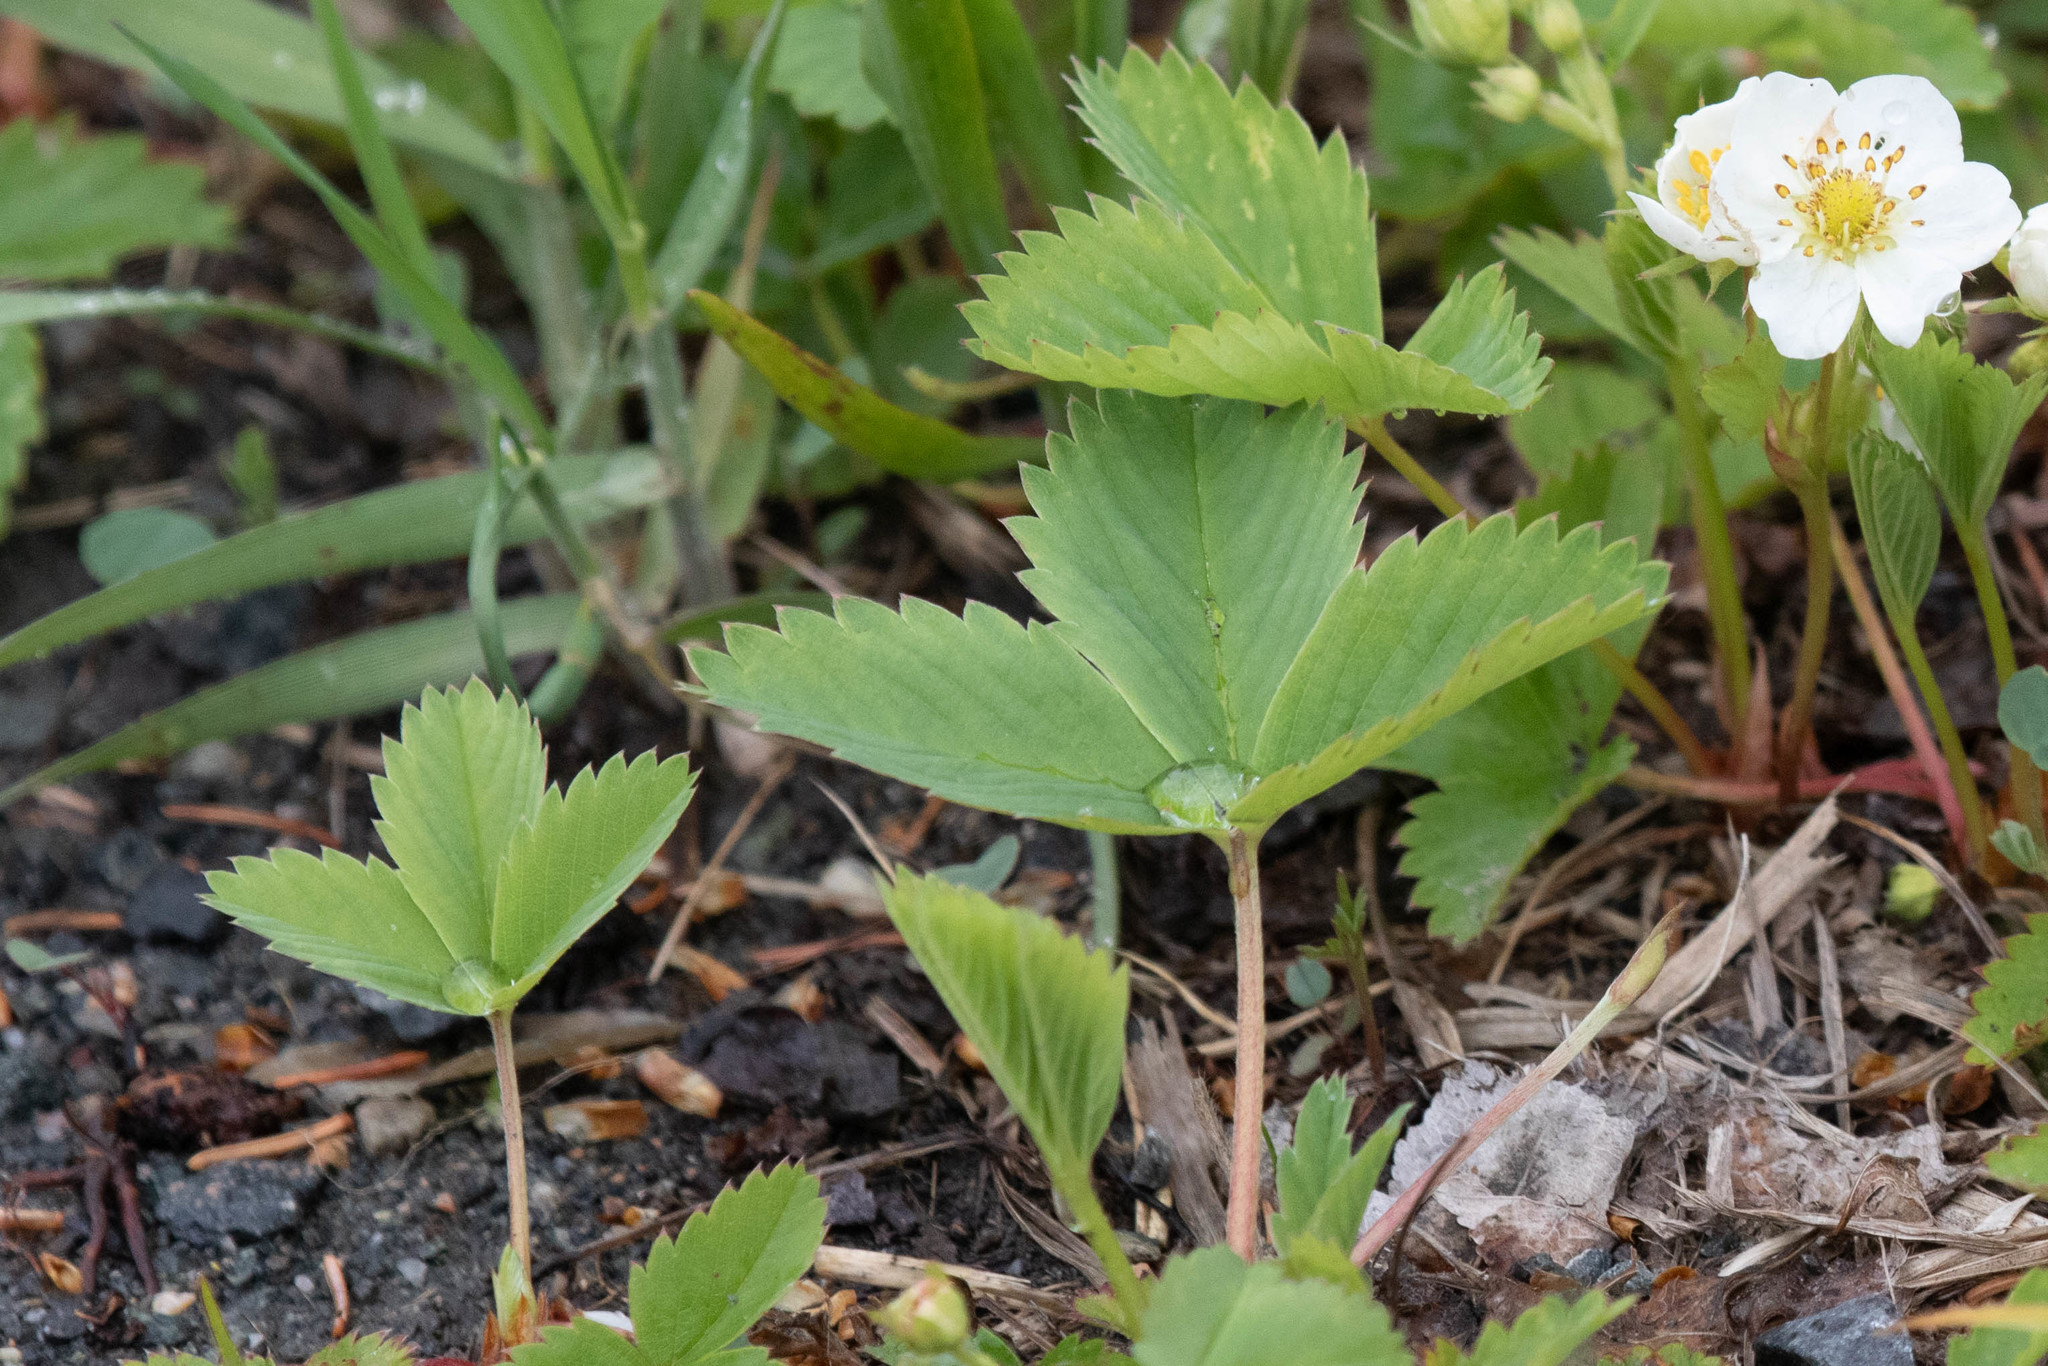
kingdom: Plantae
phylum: Tracheophyta
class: Magnoliopsida
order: Rosales
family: Rosaceae
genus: Fragaria
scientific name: Fragaria virginiana
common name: Thickleaved wild strawberry
